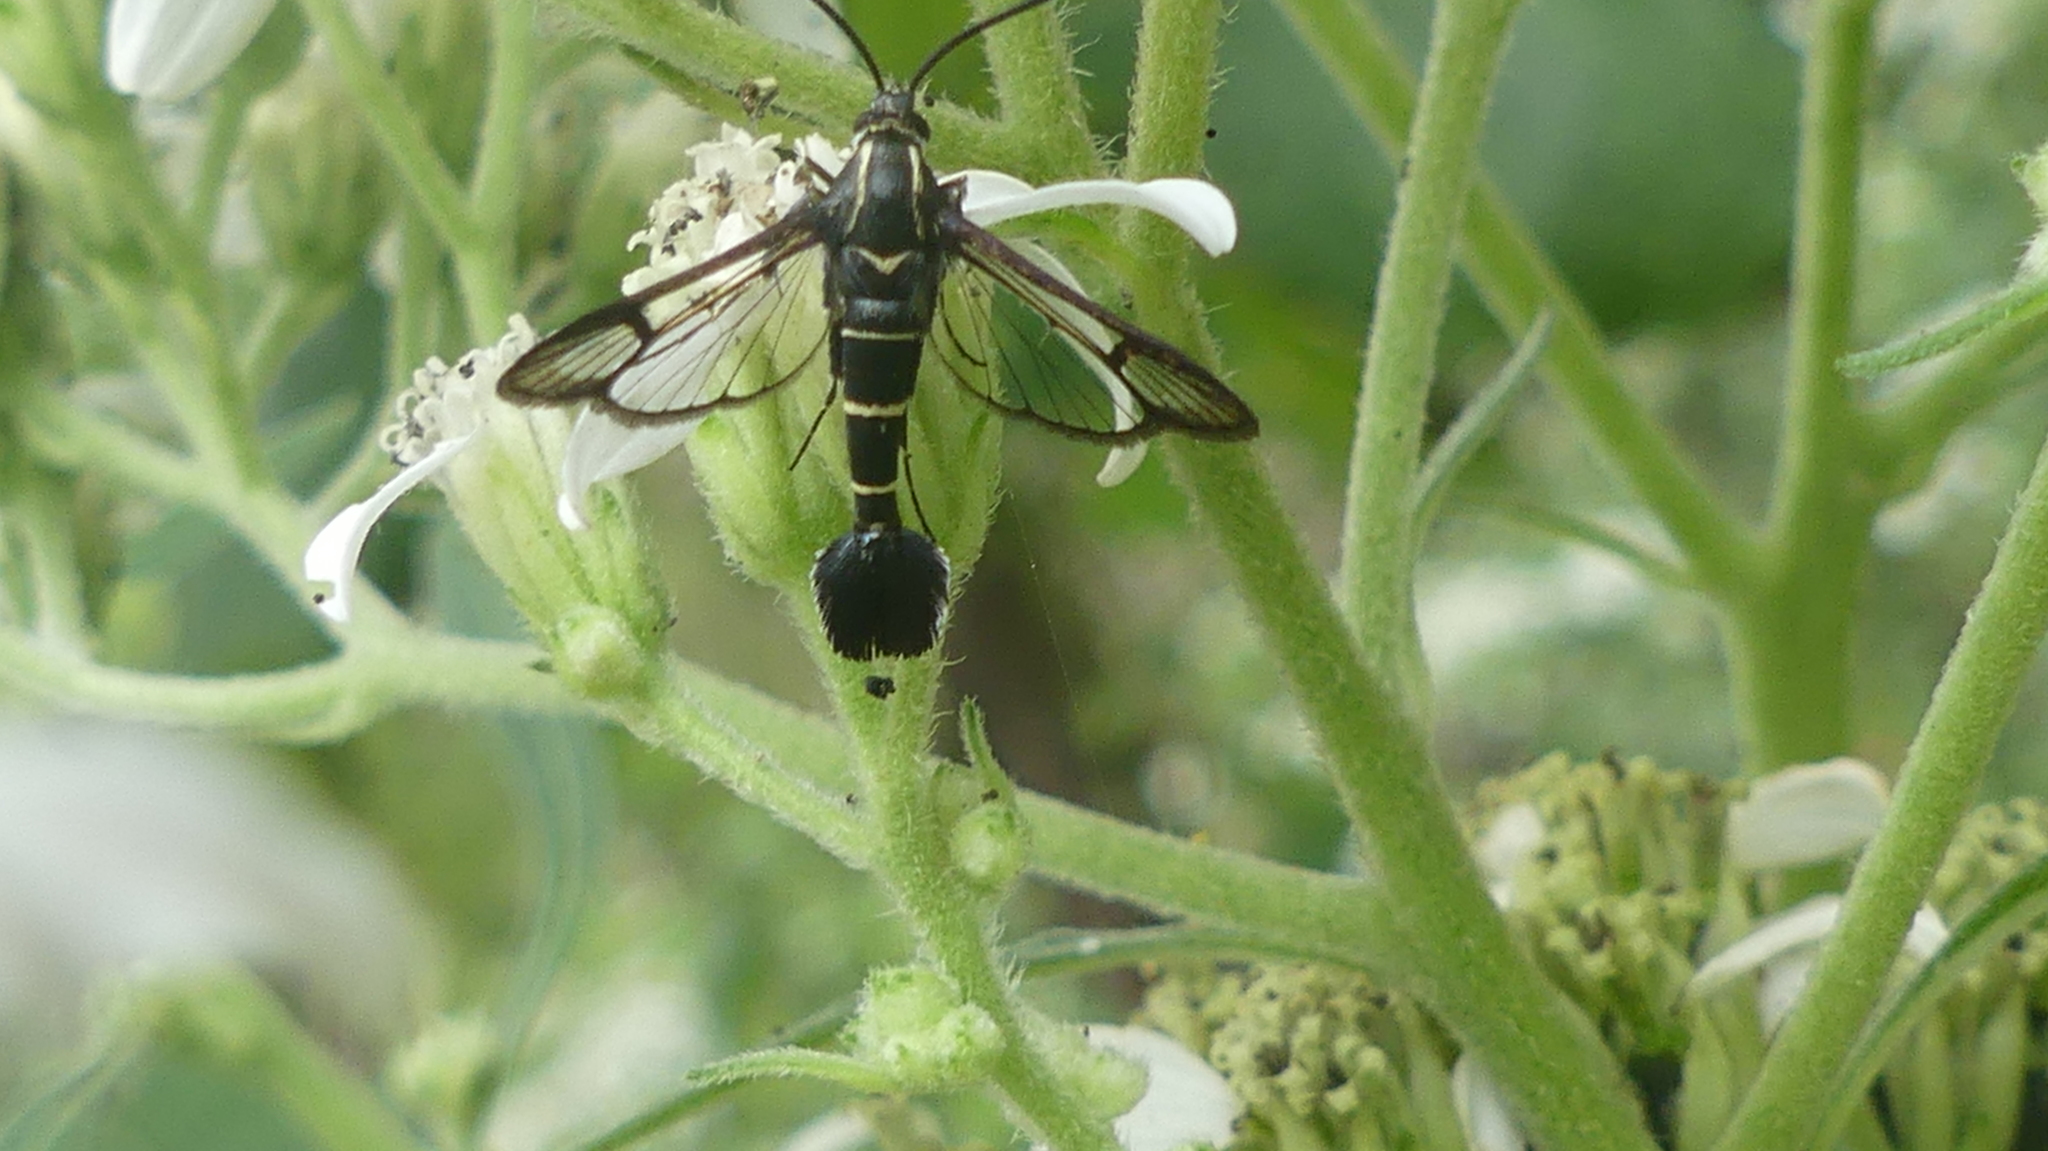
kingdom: Animalia
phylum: Arthropoda
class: Insecta
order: Lepidoptera
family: Sesiidae
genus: Carmenta
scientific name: Carmenta phoradendri
